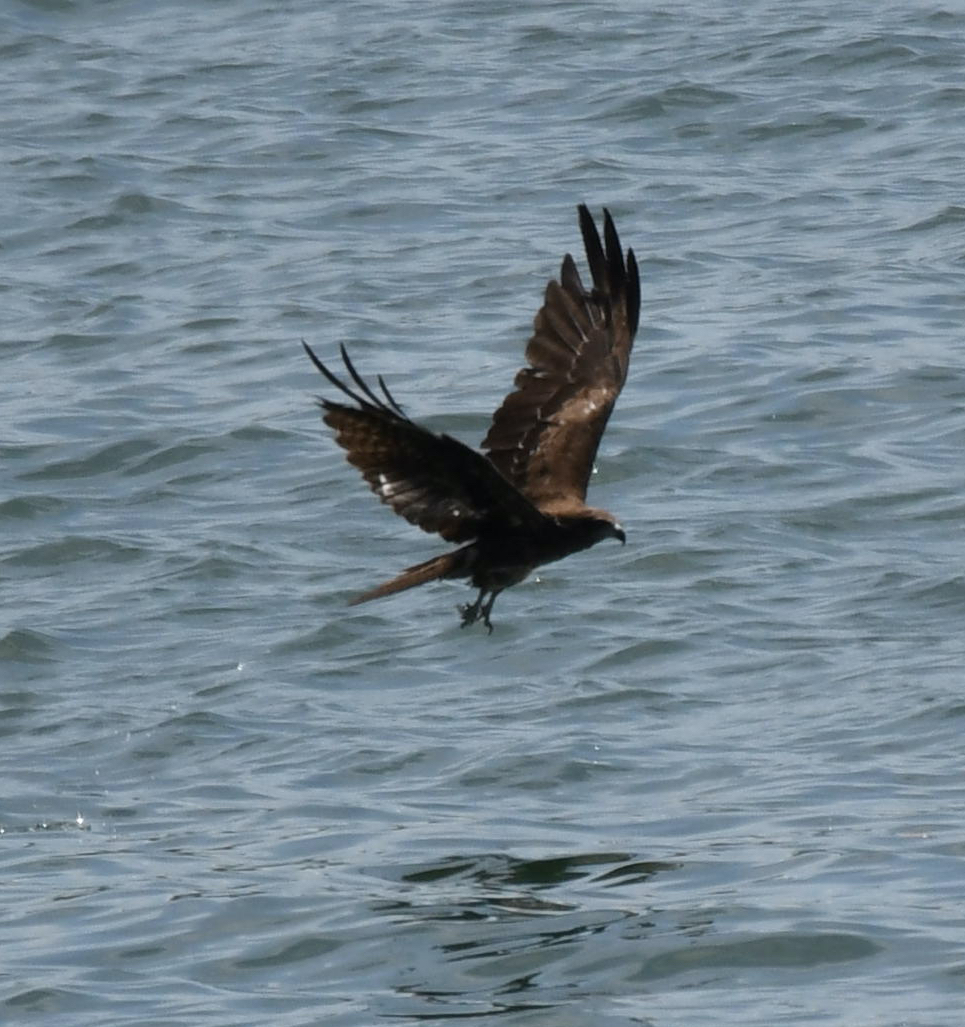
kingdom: Animalia
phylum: Chordata
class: Aves
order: Accipitriformes
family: Accipitridae
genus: Milvus
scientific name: Milvus migrans
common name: Black kite
